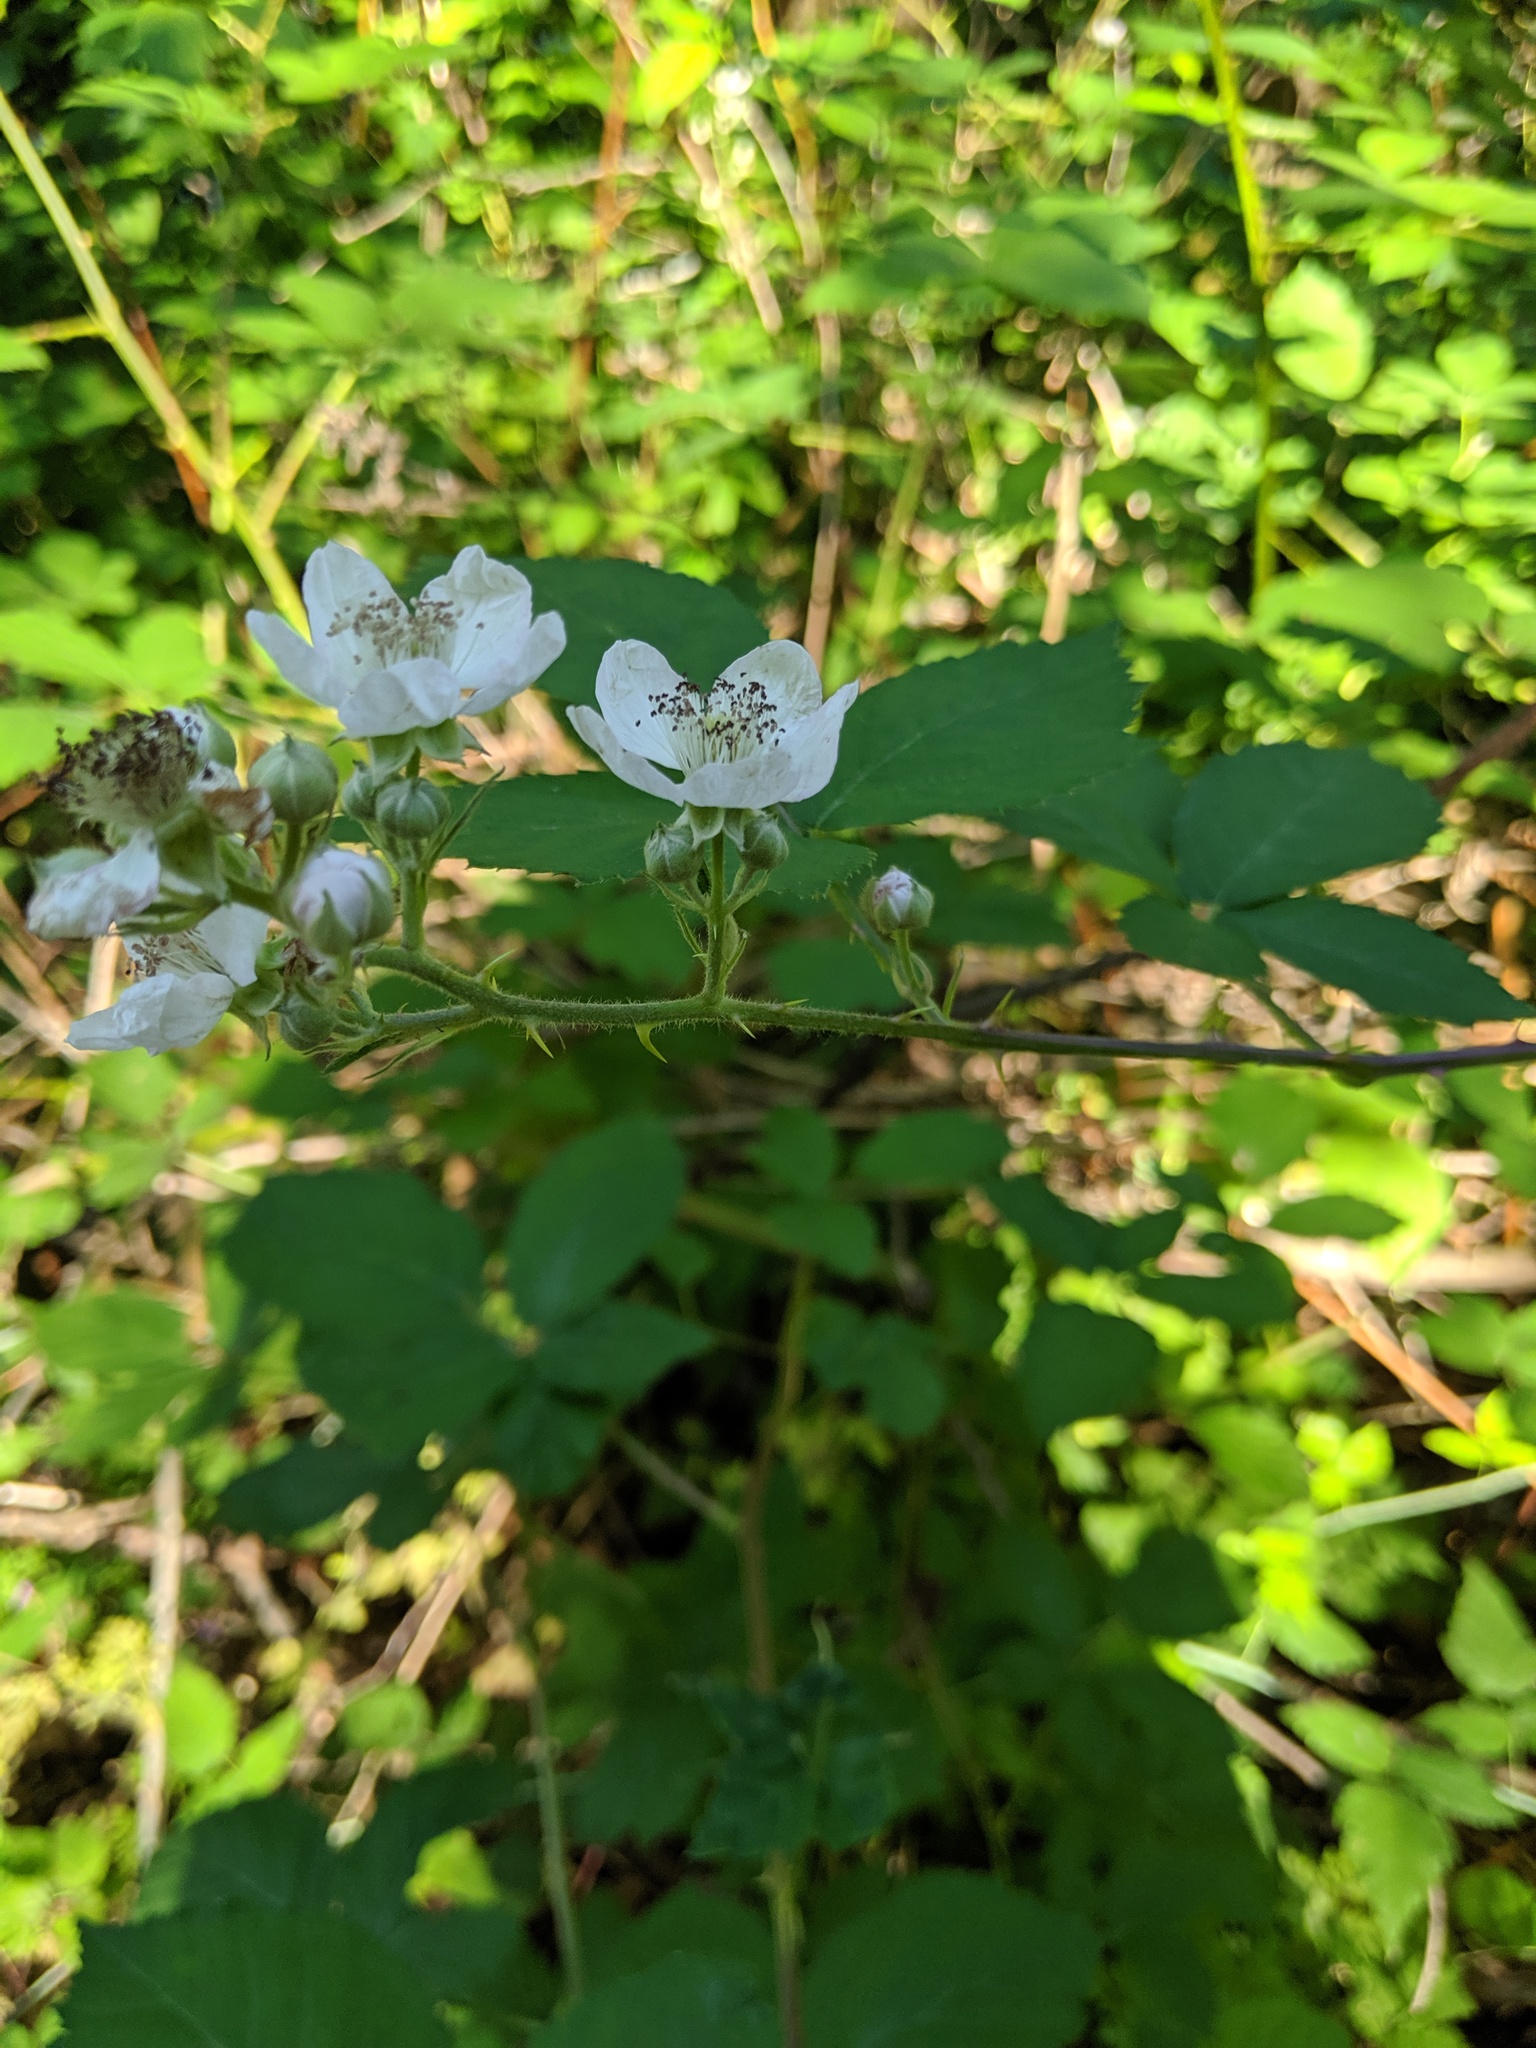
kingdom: Plantae
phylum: Tracheophyta
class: Magnoliopsida
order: Rosales
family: Rosaceae
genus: Rubus
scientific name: Rubus armeniacus
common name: Himalayan blackberry
